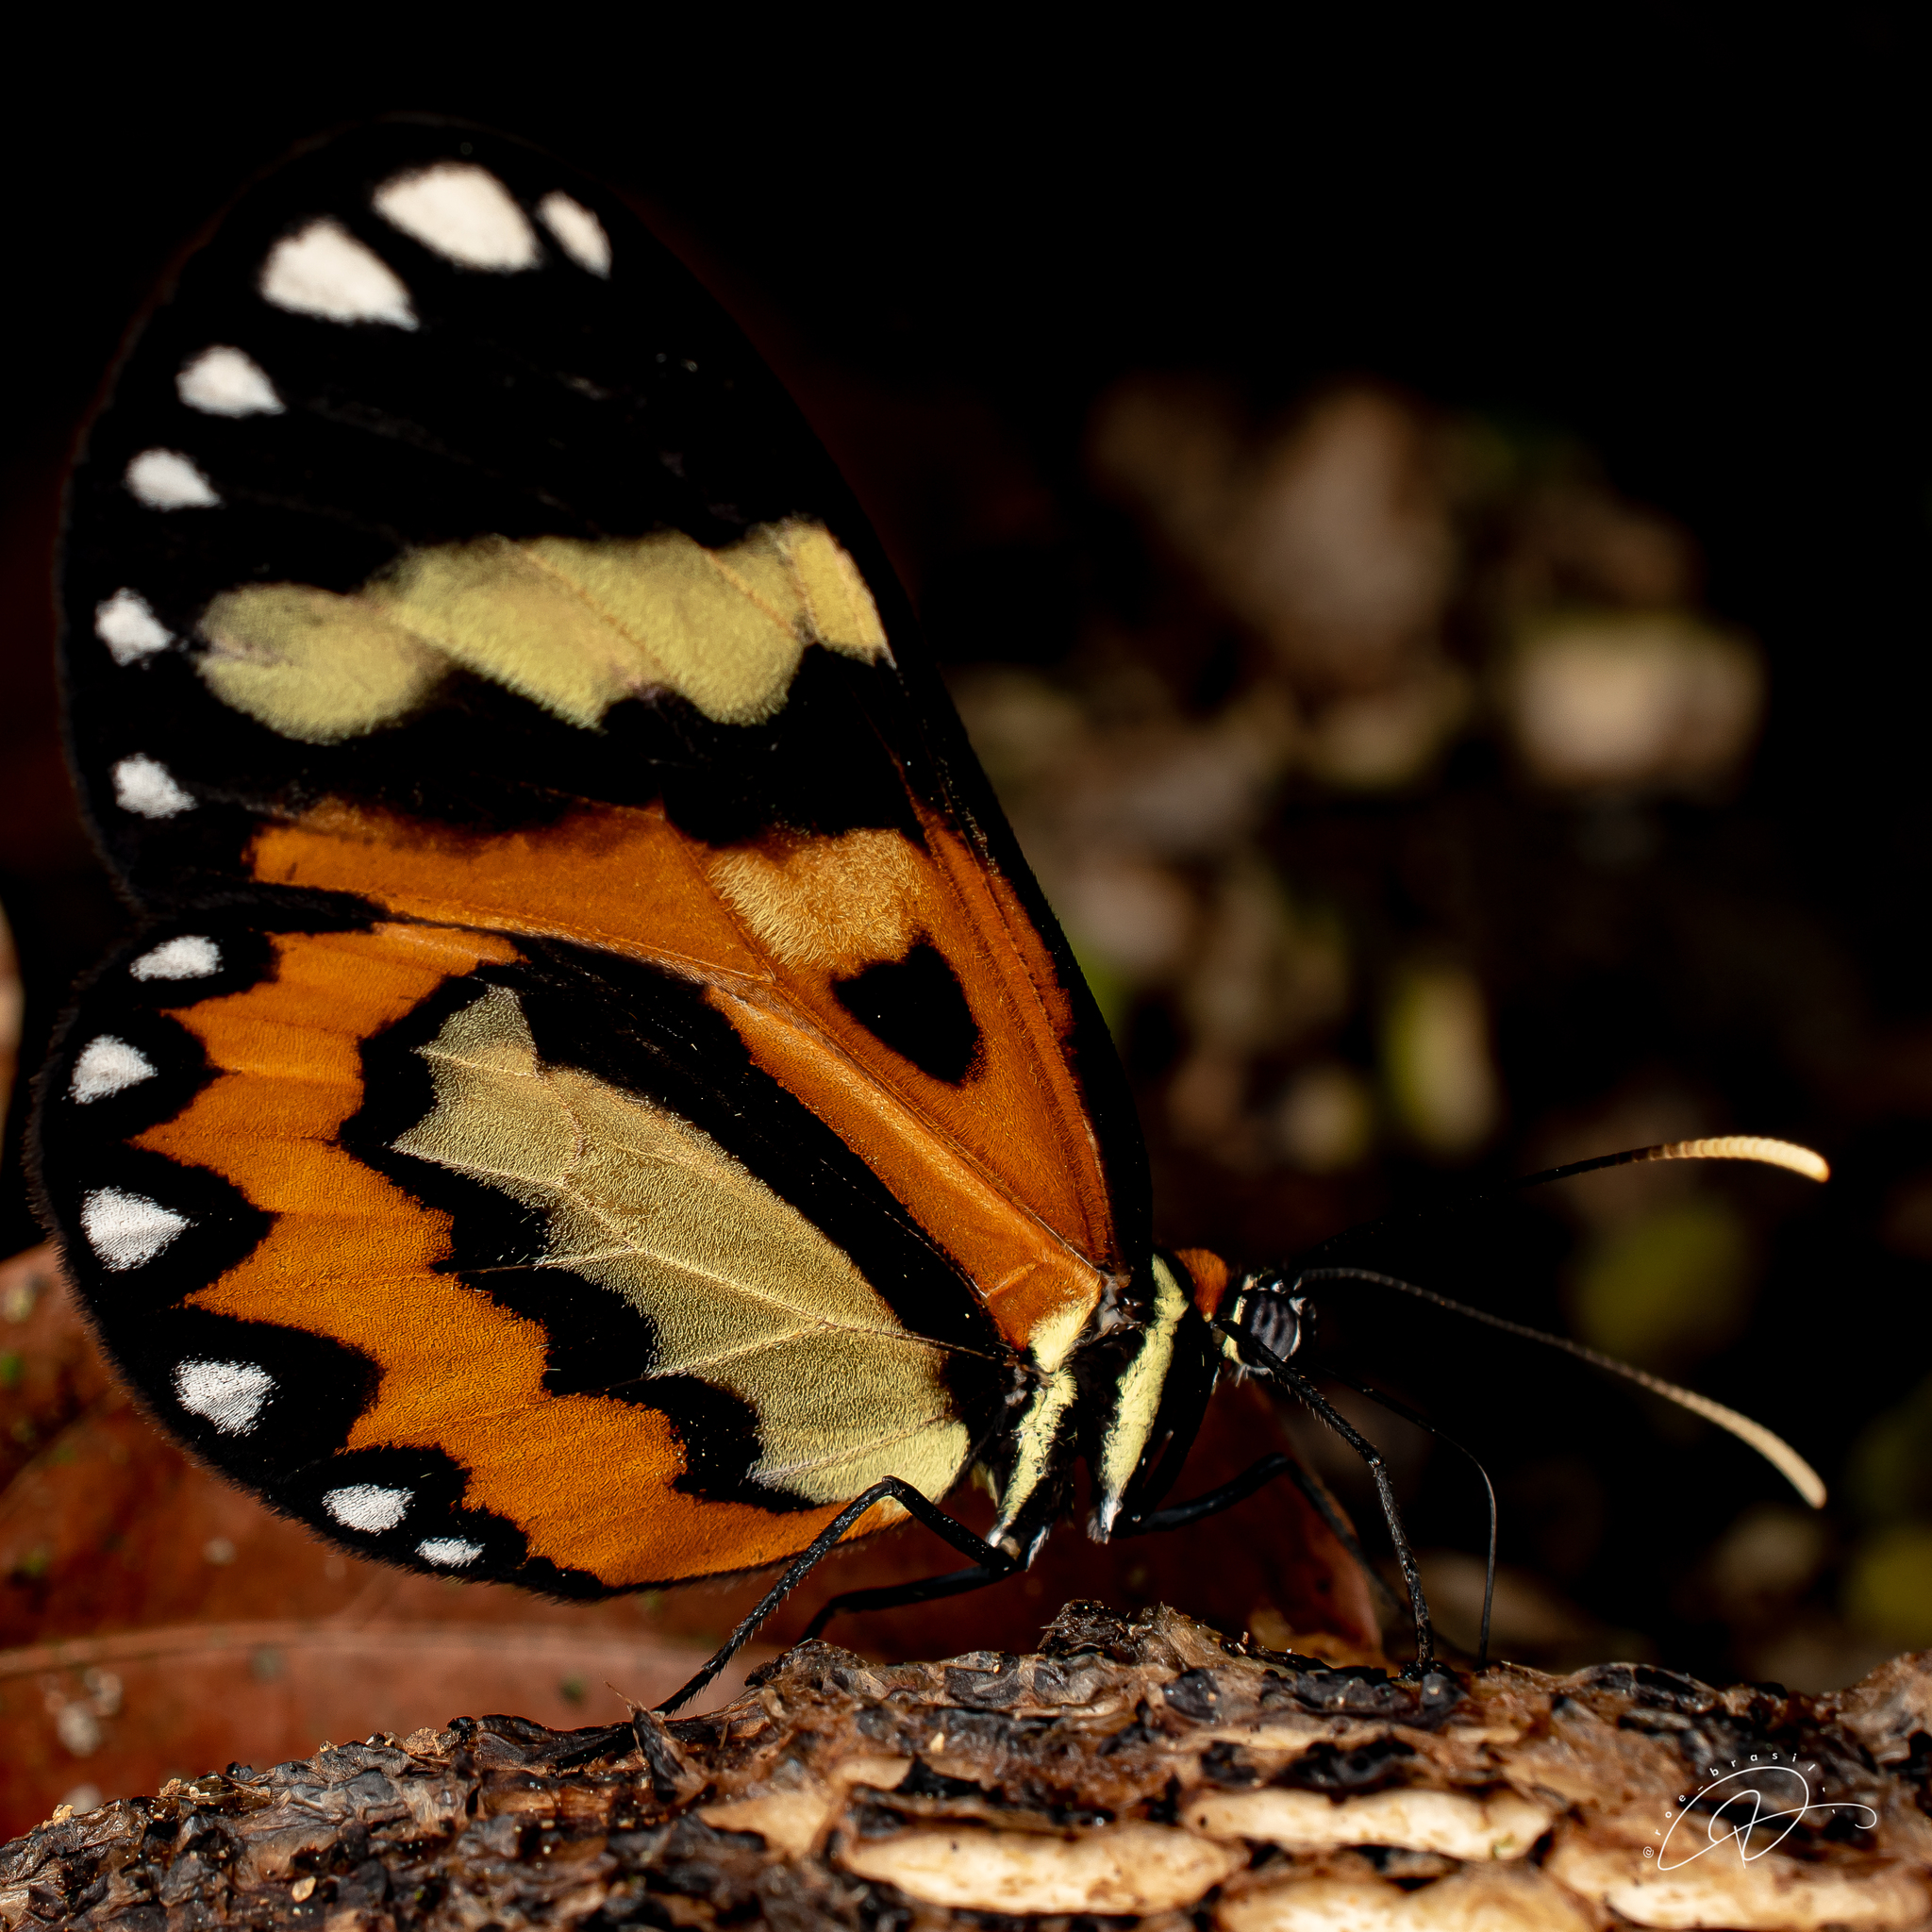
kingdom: Animalia
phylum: Arthropoda
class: Insecta
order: Lepidoptera
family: Nymphalidae
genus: Placidina
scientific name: Placidina euryanassa
